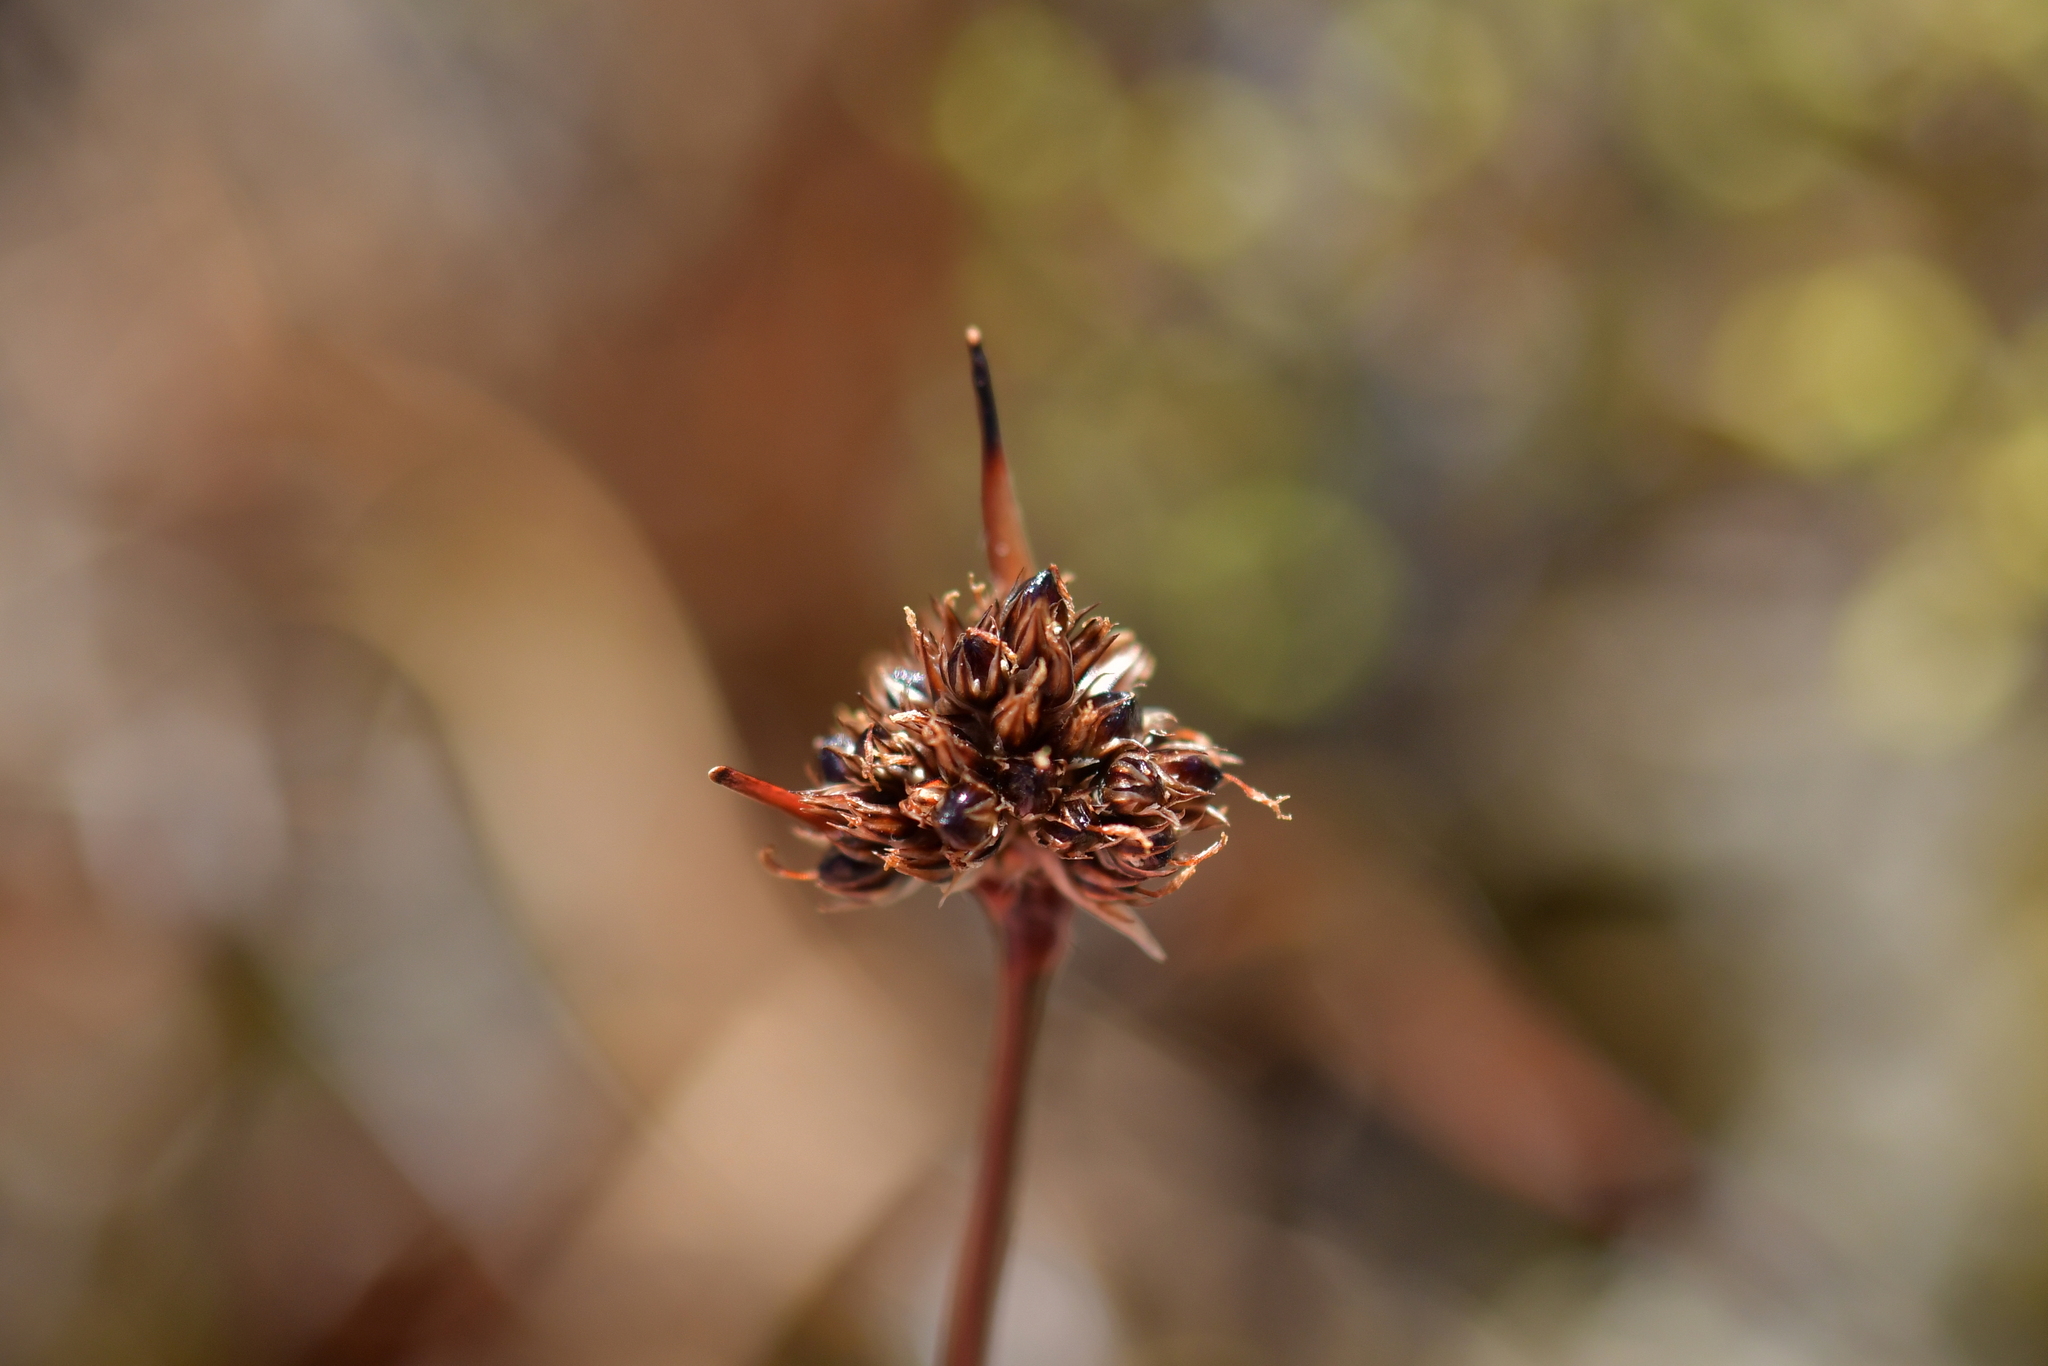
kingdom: Plantae
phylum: Tracheophyta
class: Liliopsida
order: Poales
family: Juncaceae
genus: Luzula
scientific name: Luzula rufa
